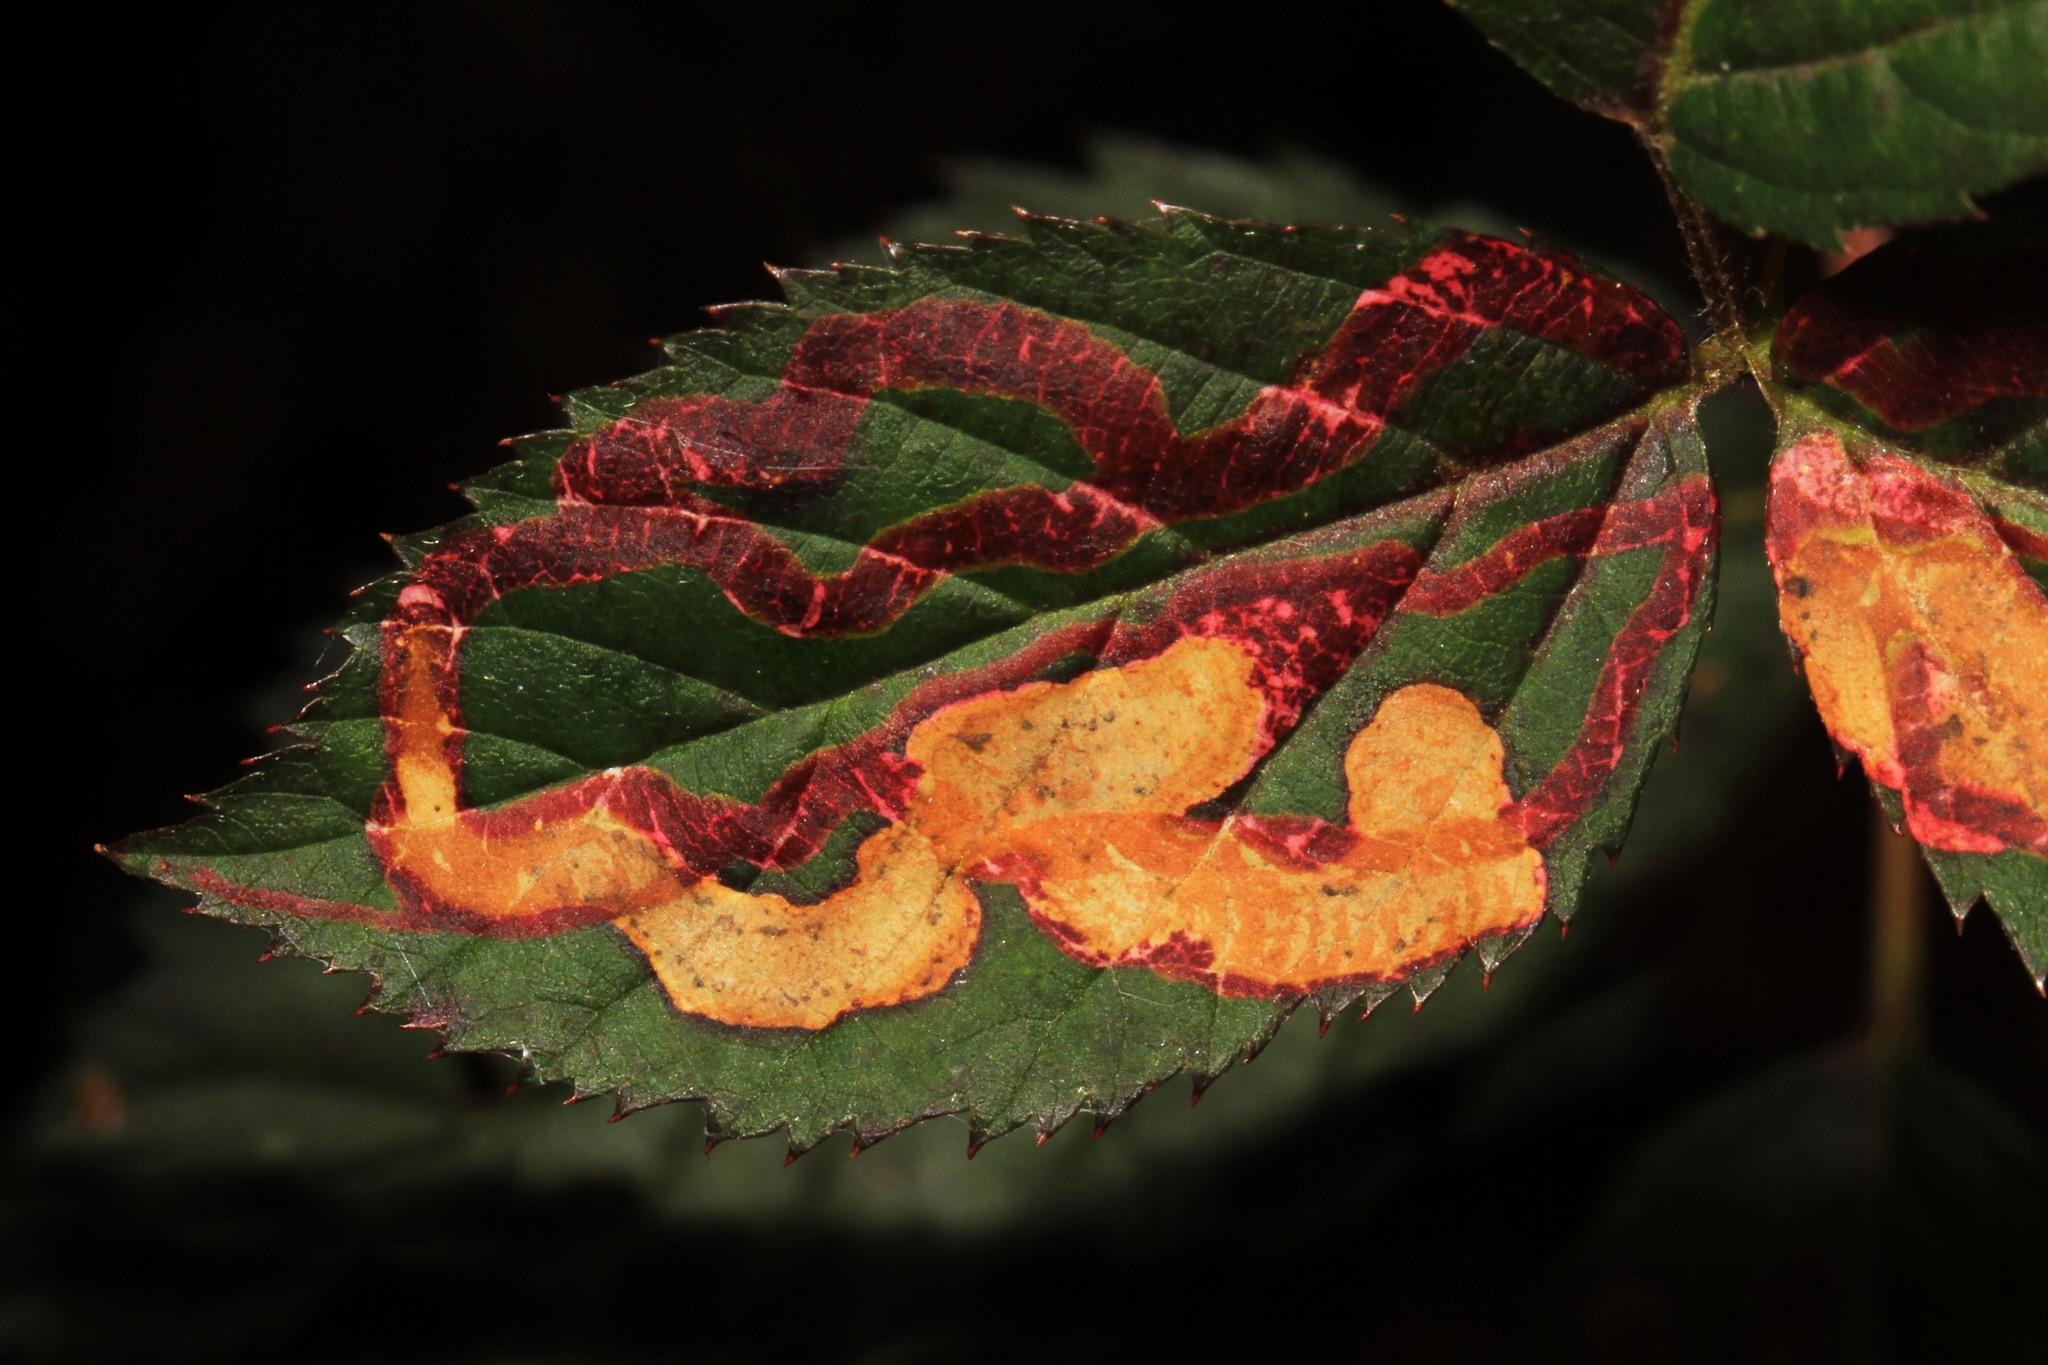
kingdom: Animalia
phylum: Arthropoda
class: Insecta
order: Diptera
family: Agromyzidae
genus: Agromyza
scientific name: Agromyza vockerothi
